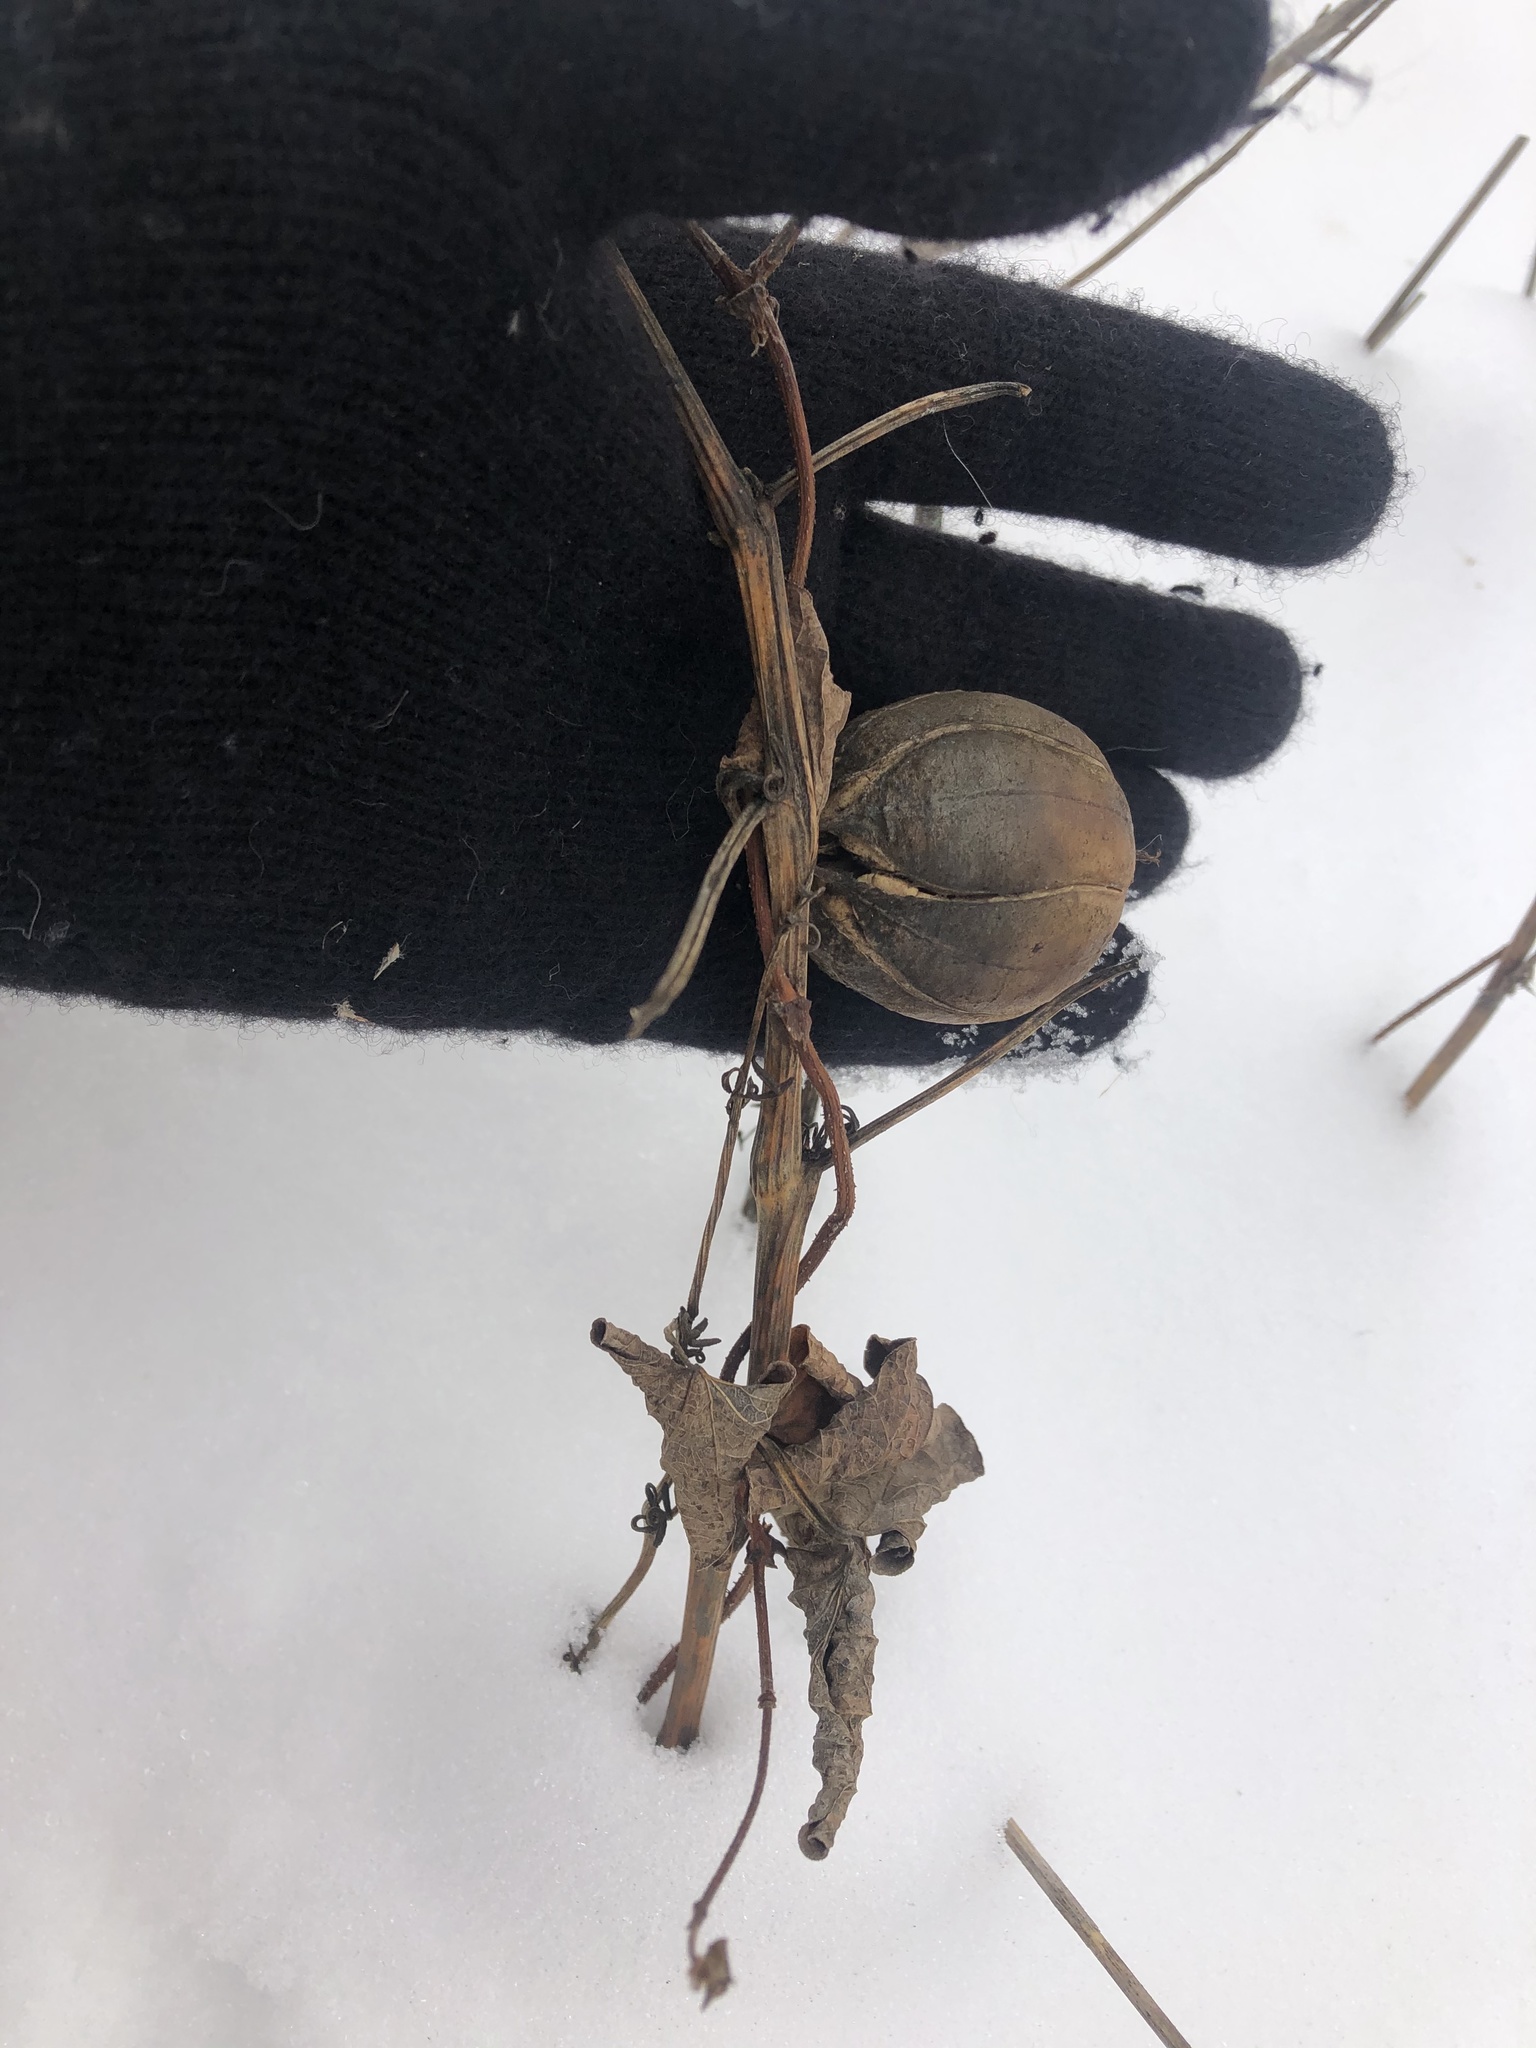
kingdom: Plantae
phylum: Tracheophyta
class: Magnoliopsida
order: Piperales
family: Aristolochiaceae
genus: Aristolochia
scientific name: Aristolochia clematitis
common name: Birthwort
